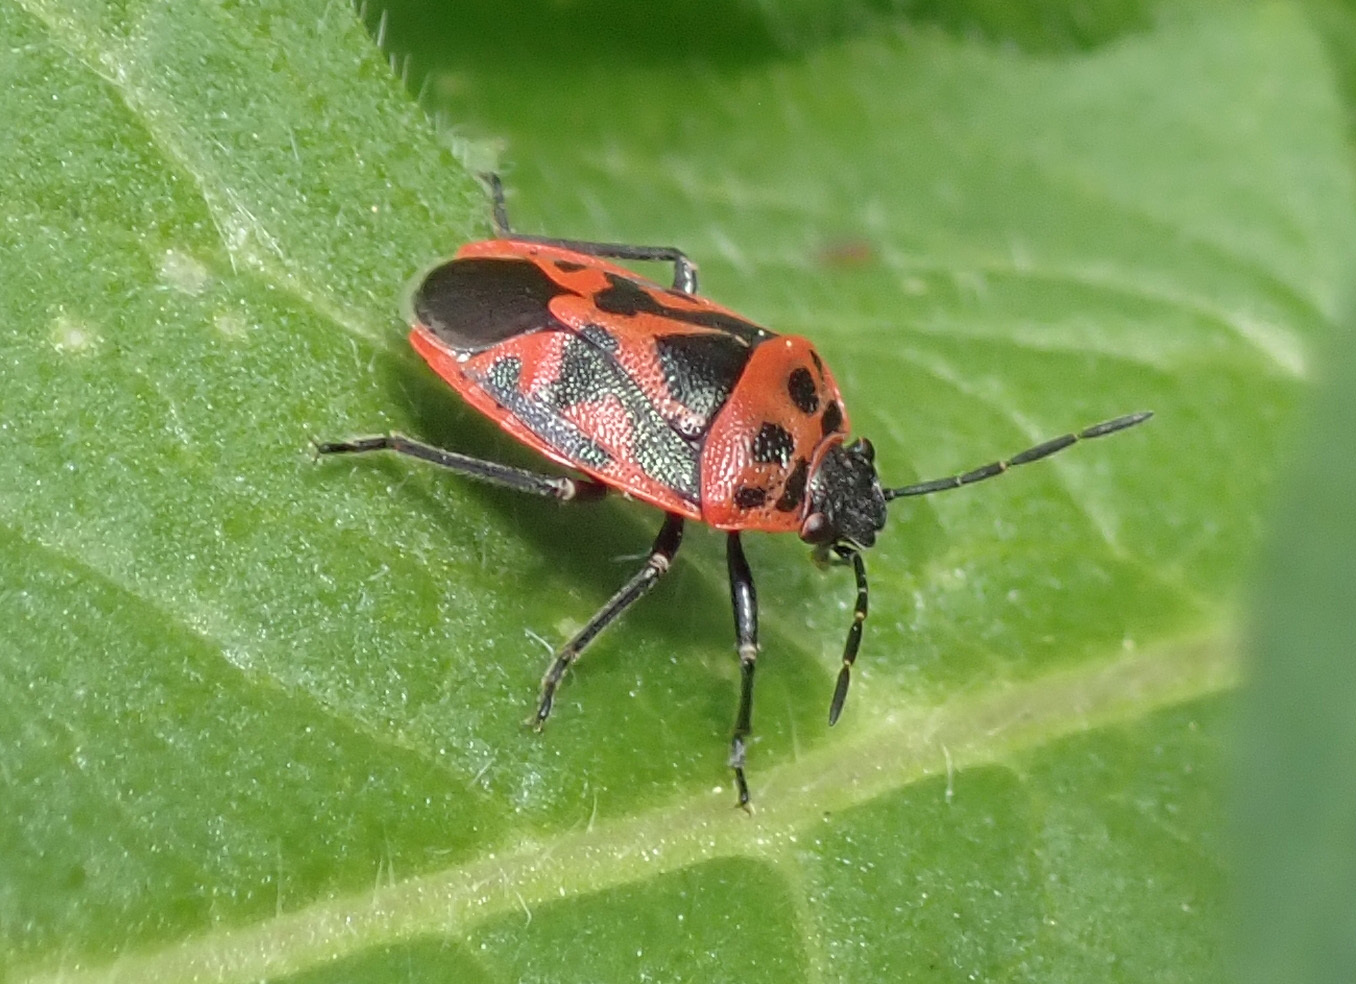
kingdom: Animalia
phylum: Arthropoda
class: Insecta
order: Hemiptera
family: Pentatomidae
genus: Eurydema
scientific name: Eurydema ornata
